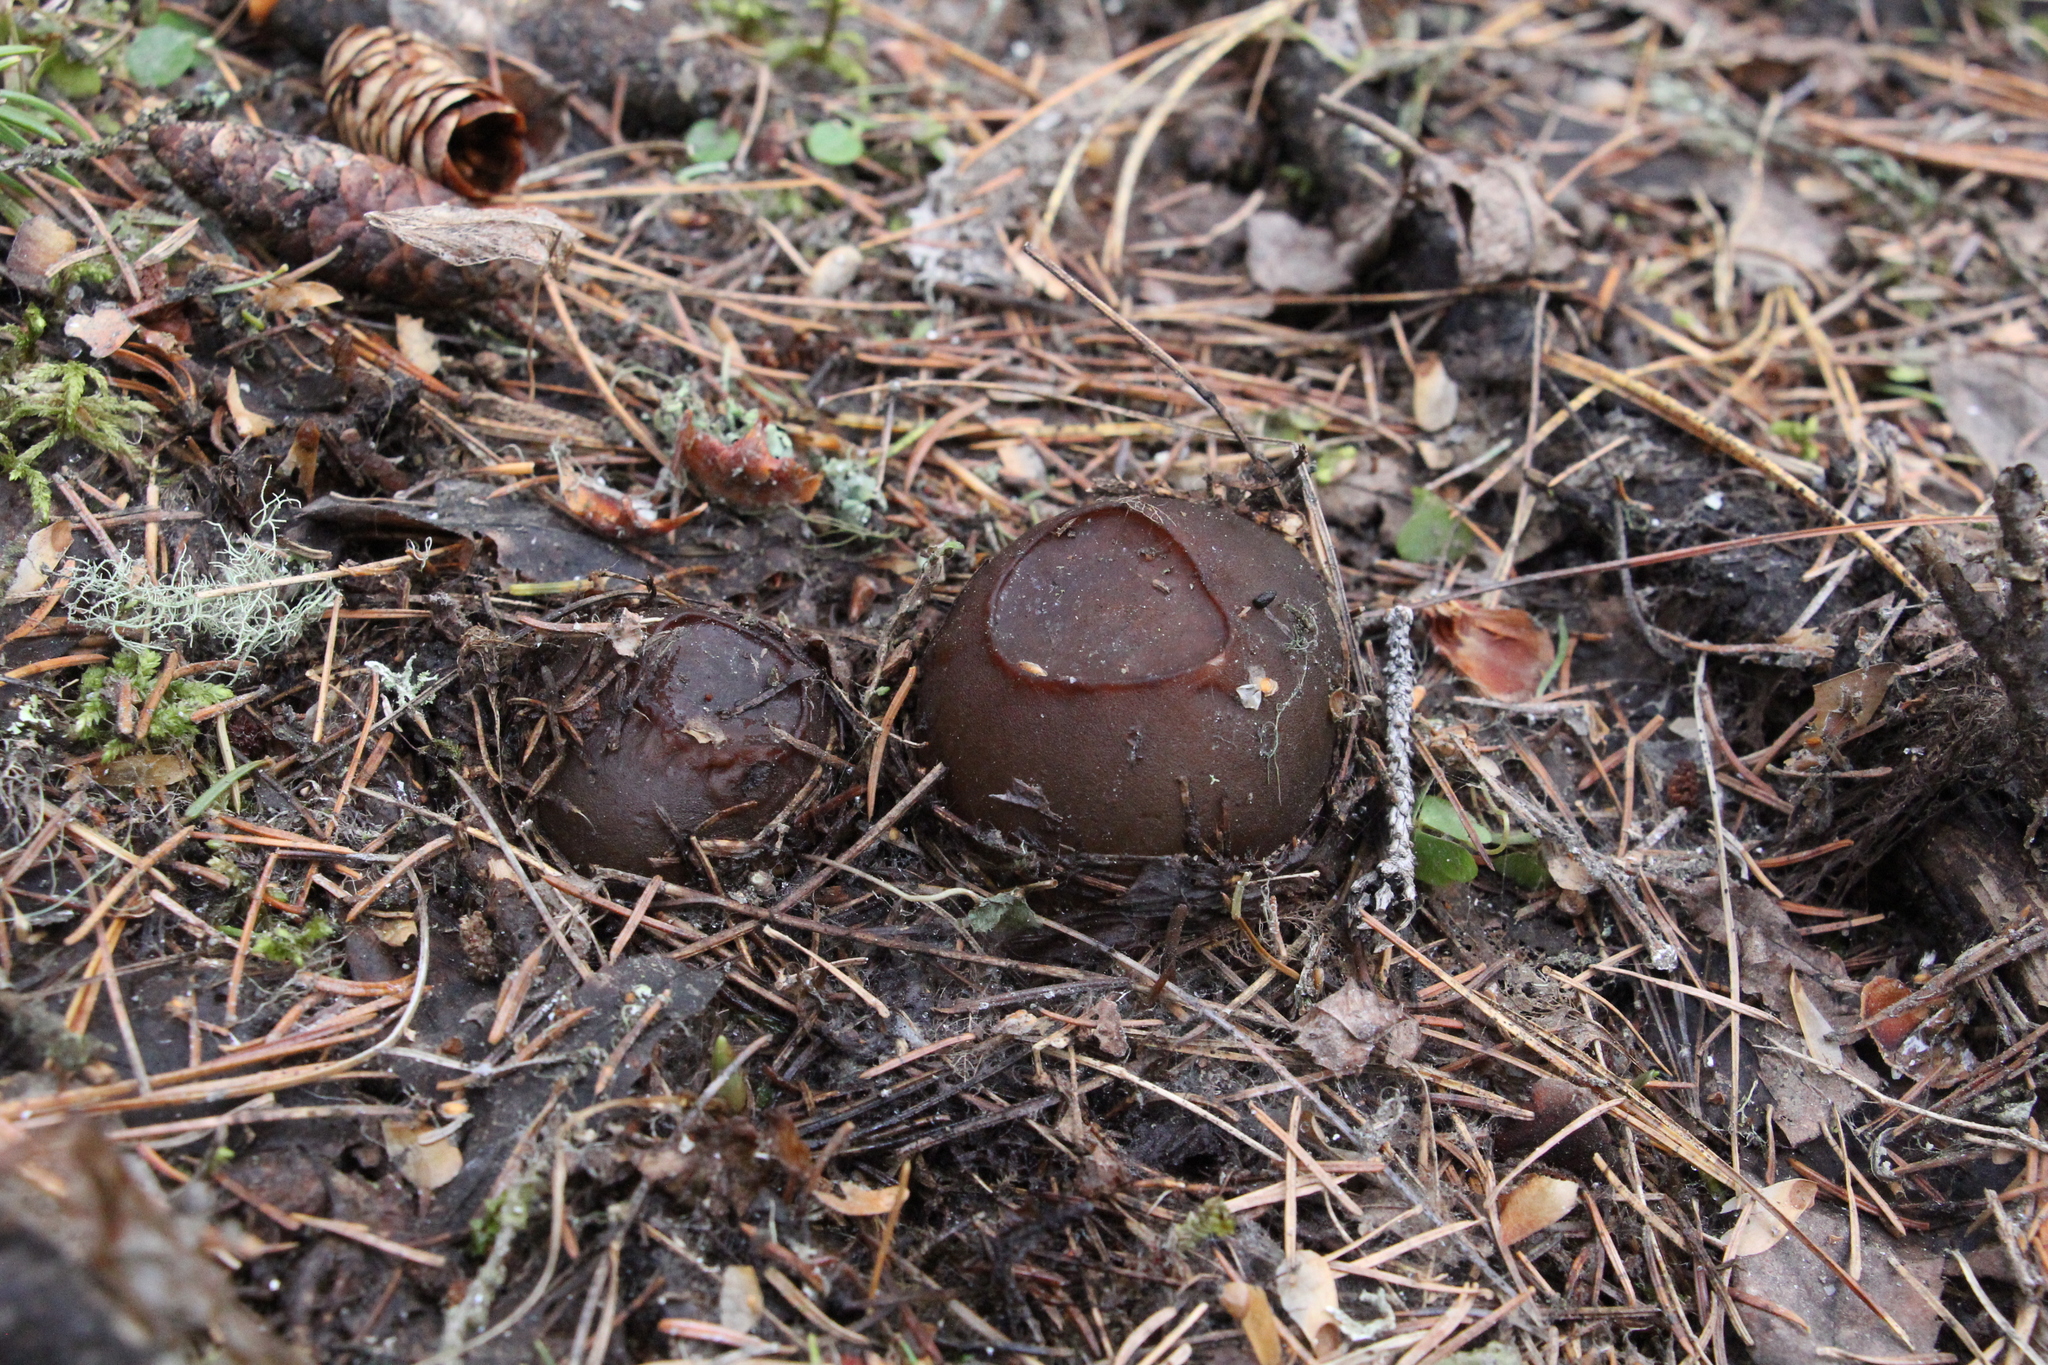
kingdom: Fungi
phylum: Ascomycota
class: Pezizomycetes
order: Pezizales
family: Sarcosomataceae
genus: Sarcosoma
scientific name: Sarcosoma globosum
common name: Charred-pancake cup
